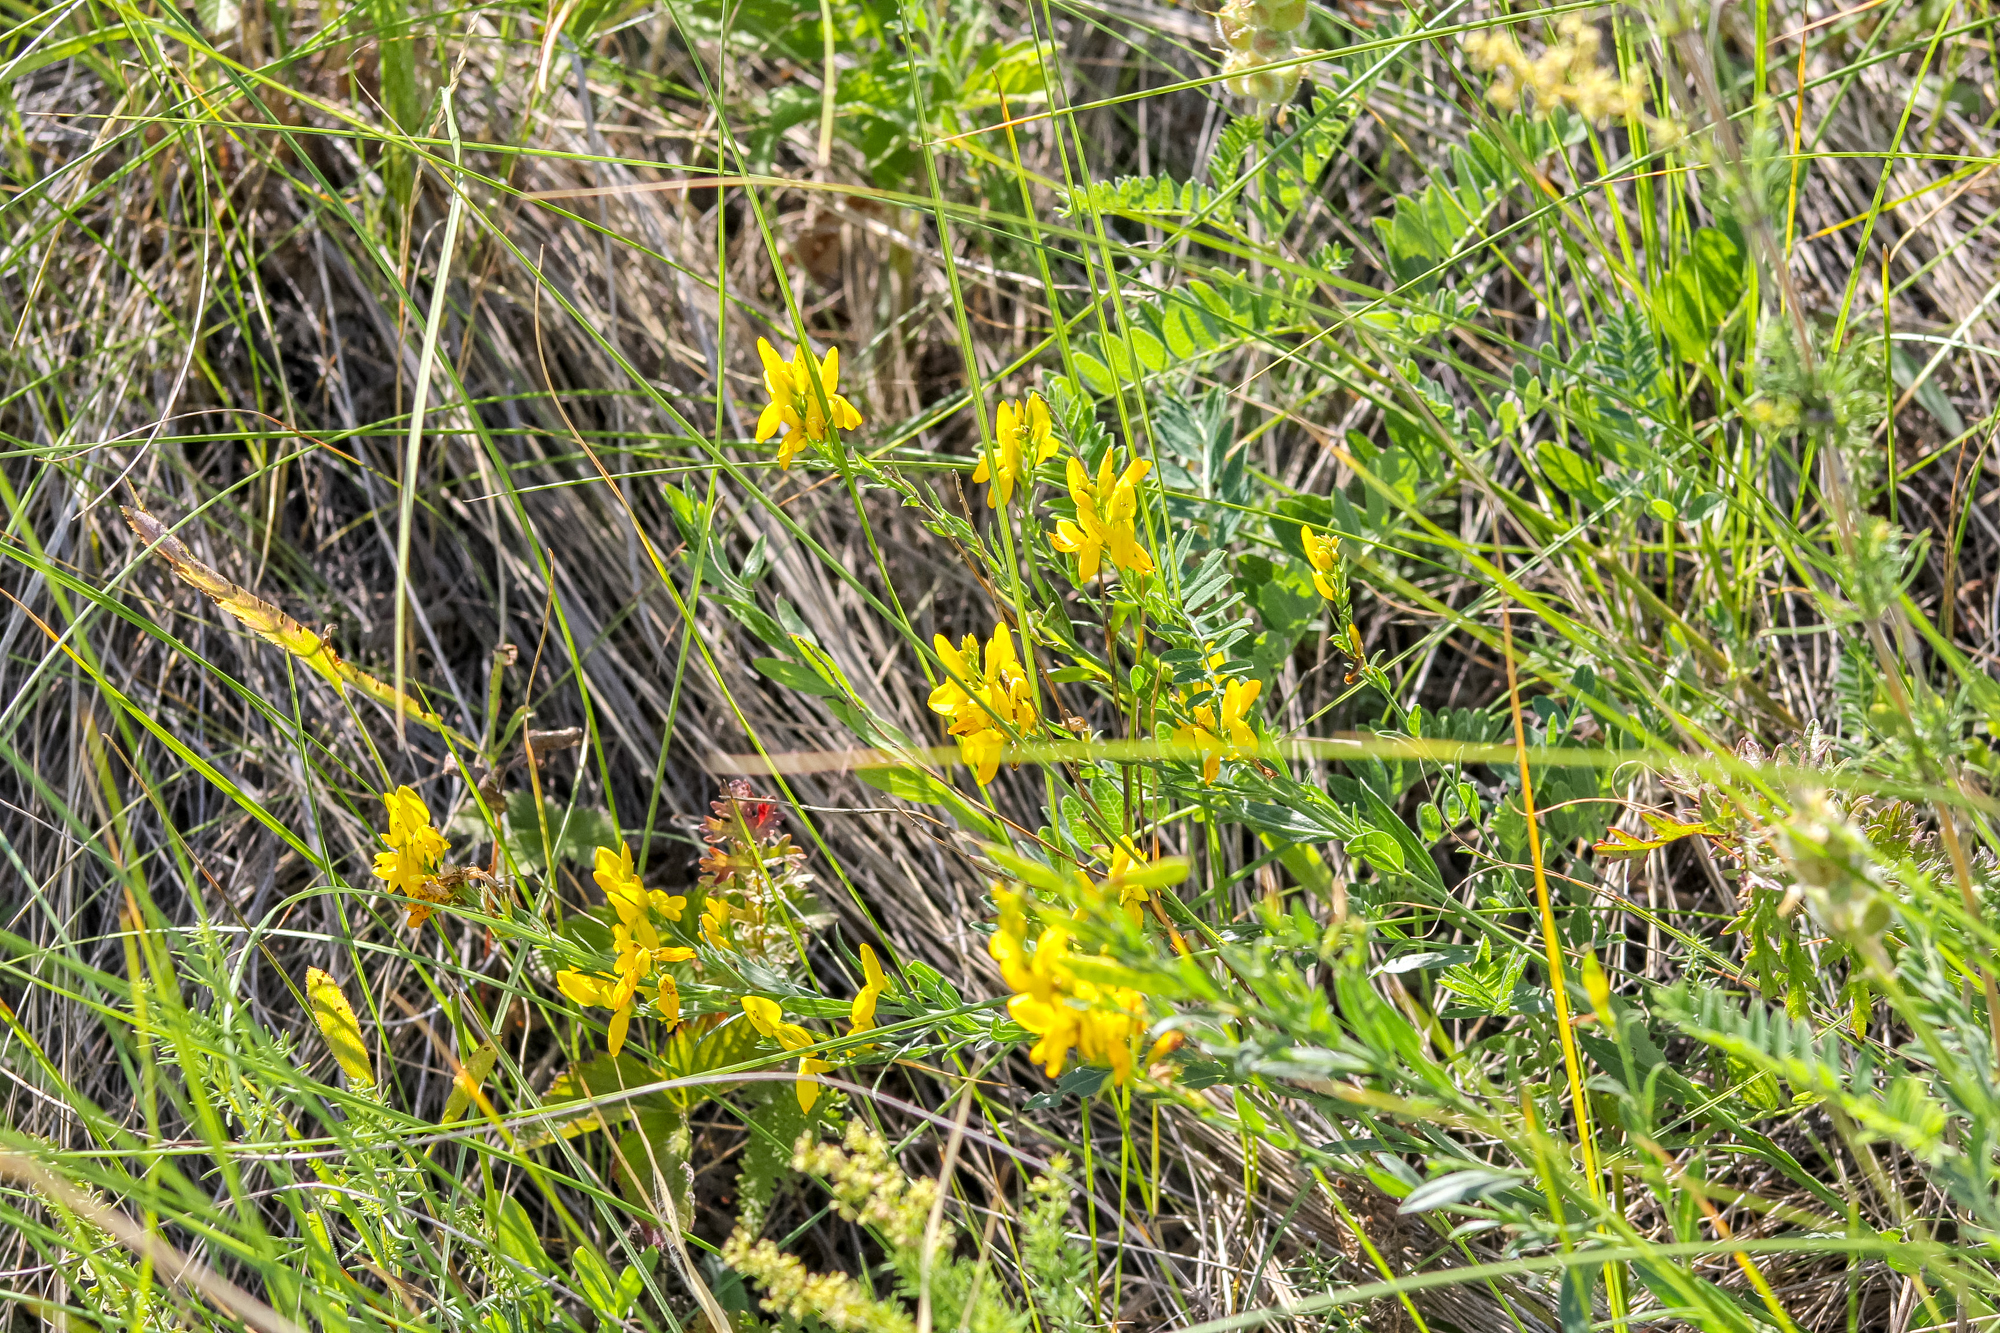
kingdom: Plantae
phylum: Tracheophyta
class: Magnoliopsida
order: Fabales
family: Fabaceae
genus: Genista
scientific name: Genista tinctoria
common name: Dyer's greenweed
